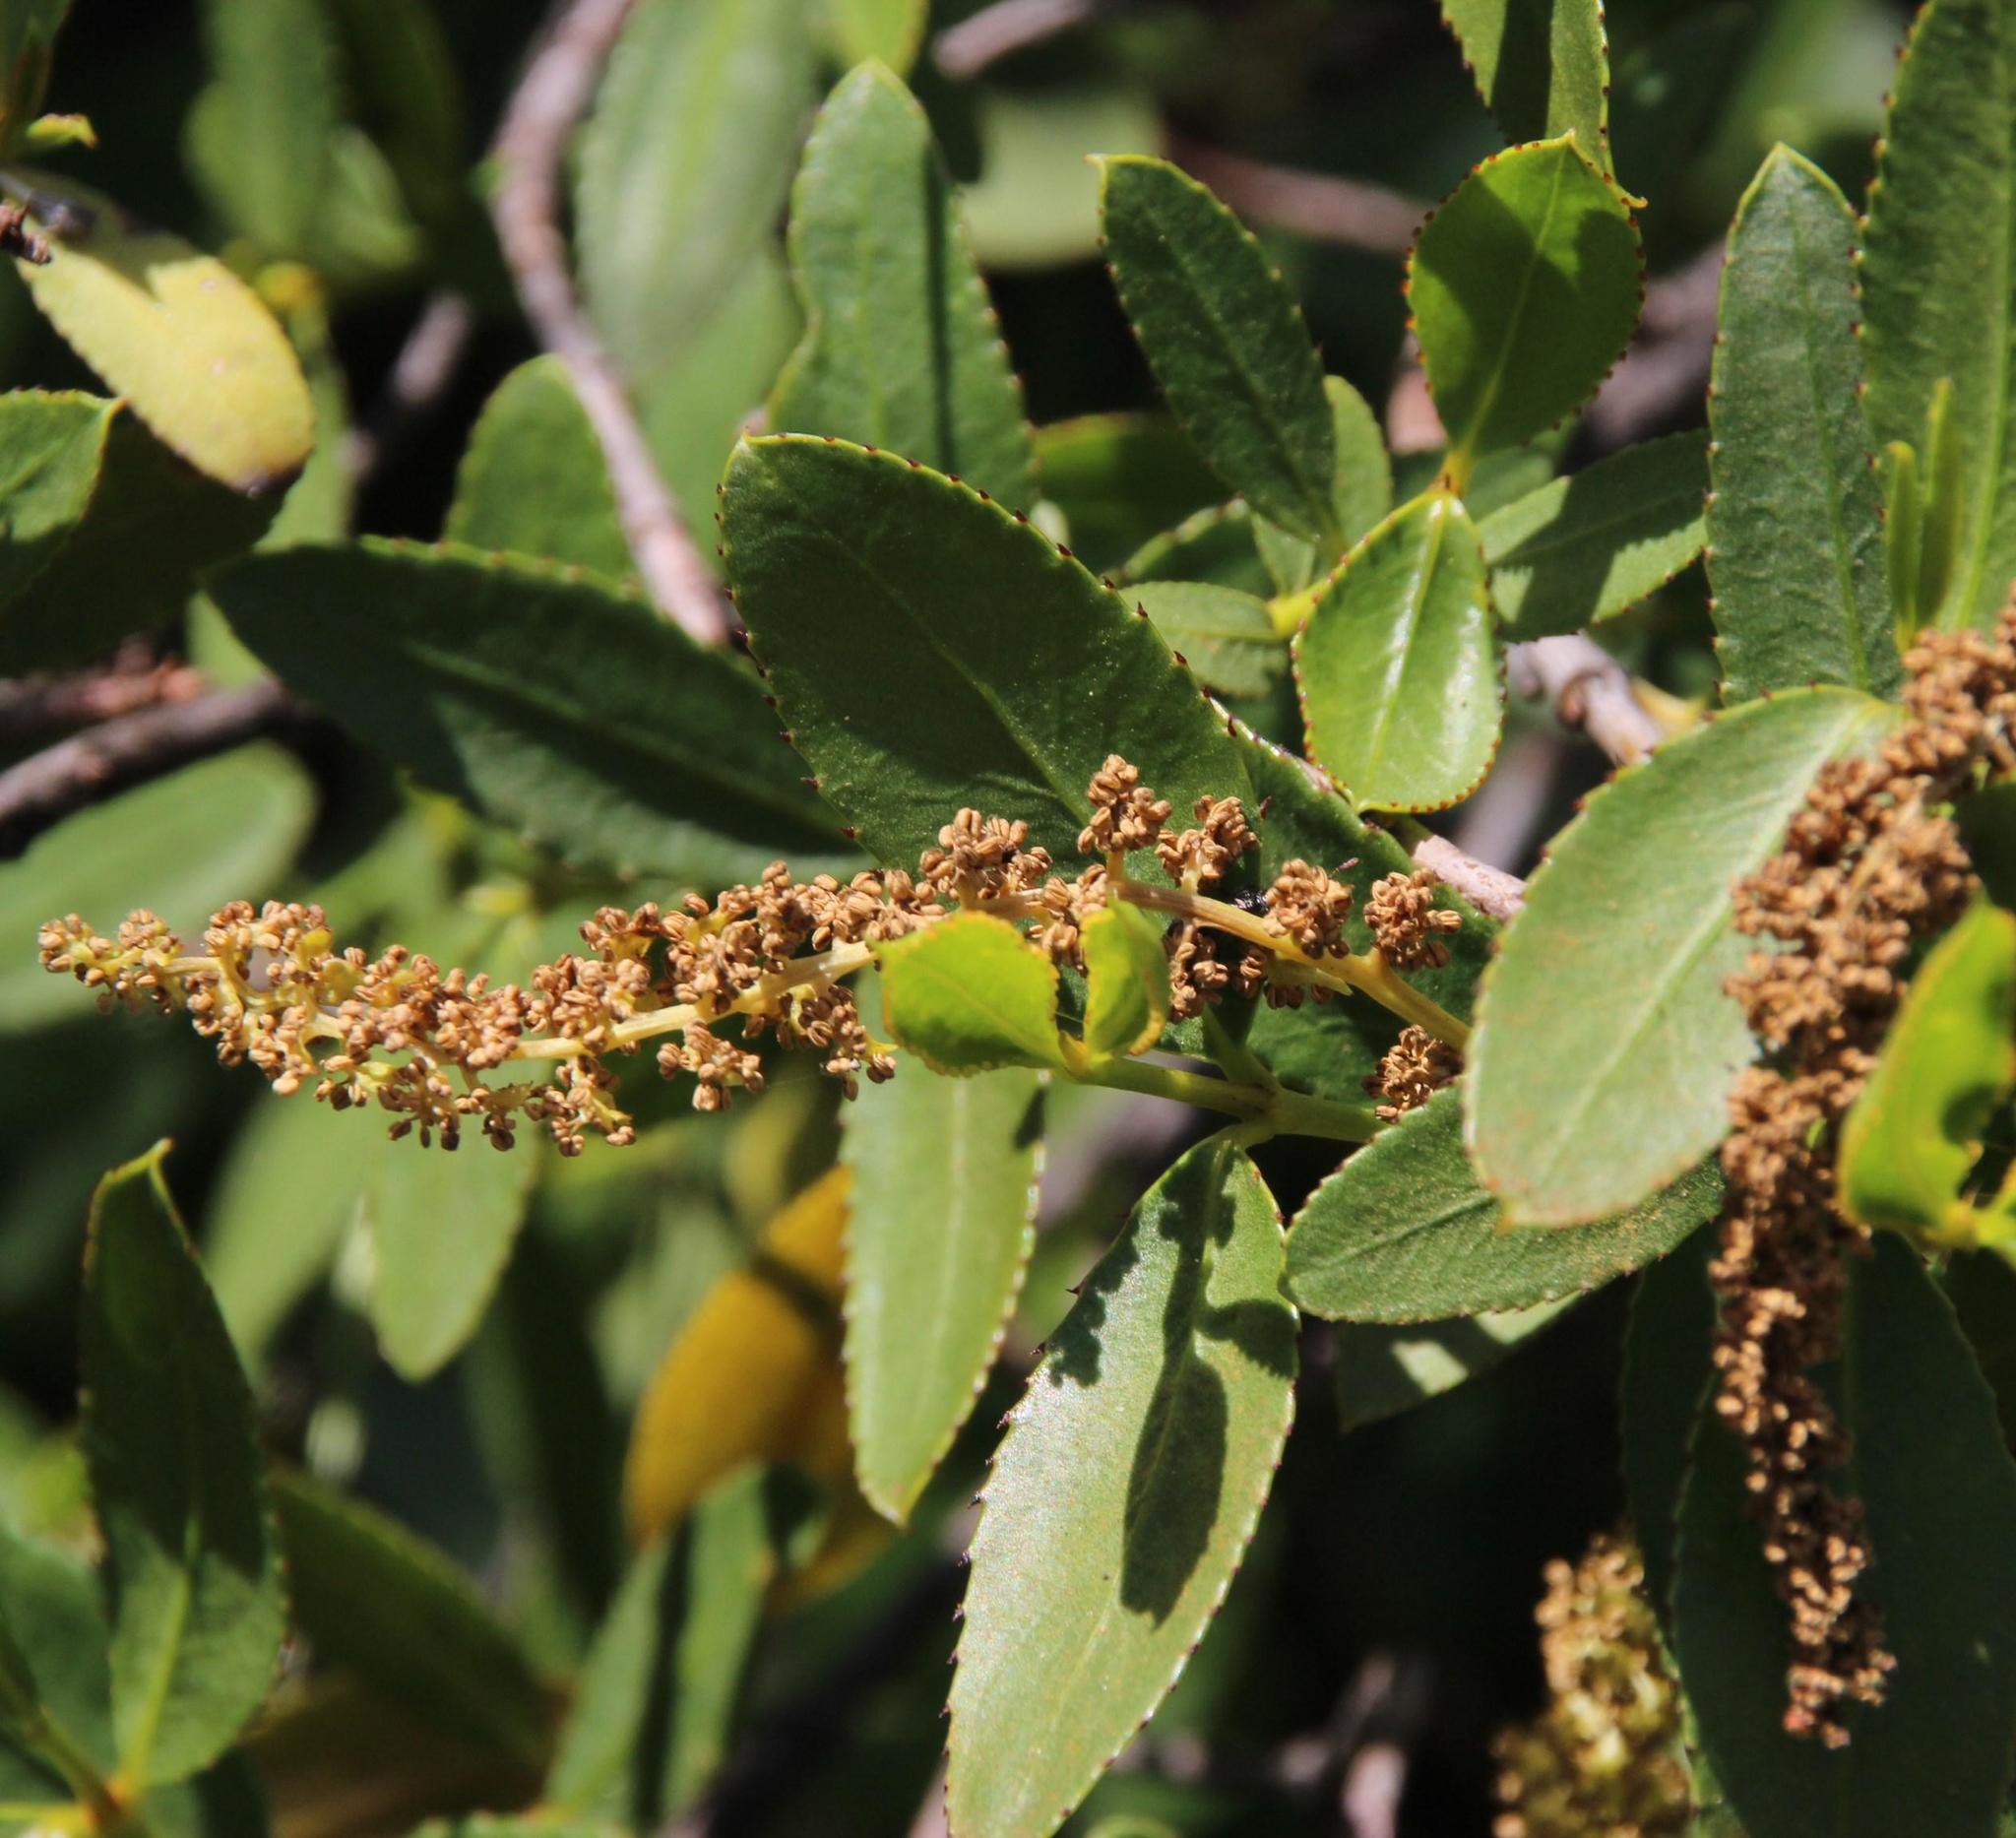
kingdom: Plantae
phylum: Tracheophyta
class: Magnoliopsida
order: Malpighiales
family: Euphorbiaceae
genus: Colliguaja
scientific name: Colliguaja odorifera
